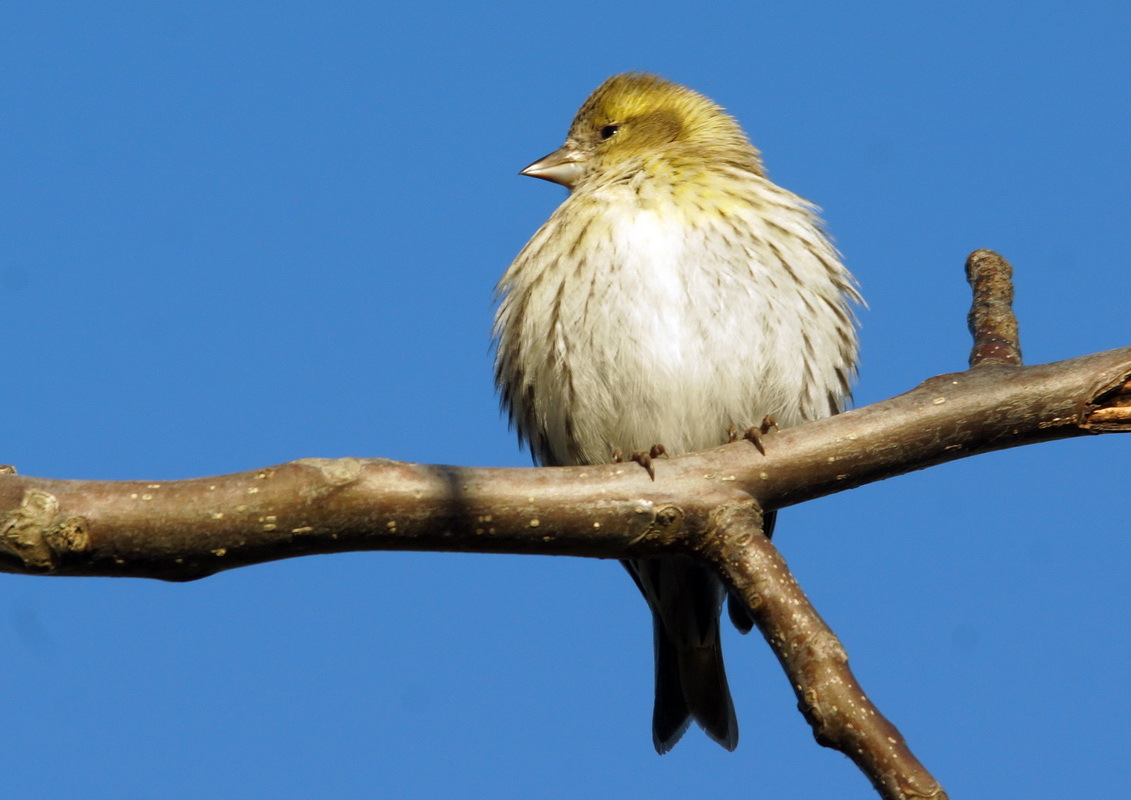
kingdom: Animalia
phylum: Chordata
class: Aves
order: Passeriformes
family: Fringillidae
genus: Spinus
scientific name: Spinus spinus
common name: Eurasian siskin
